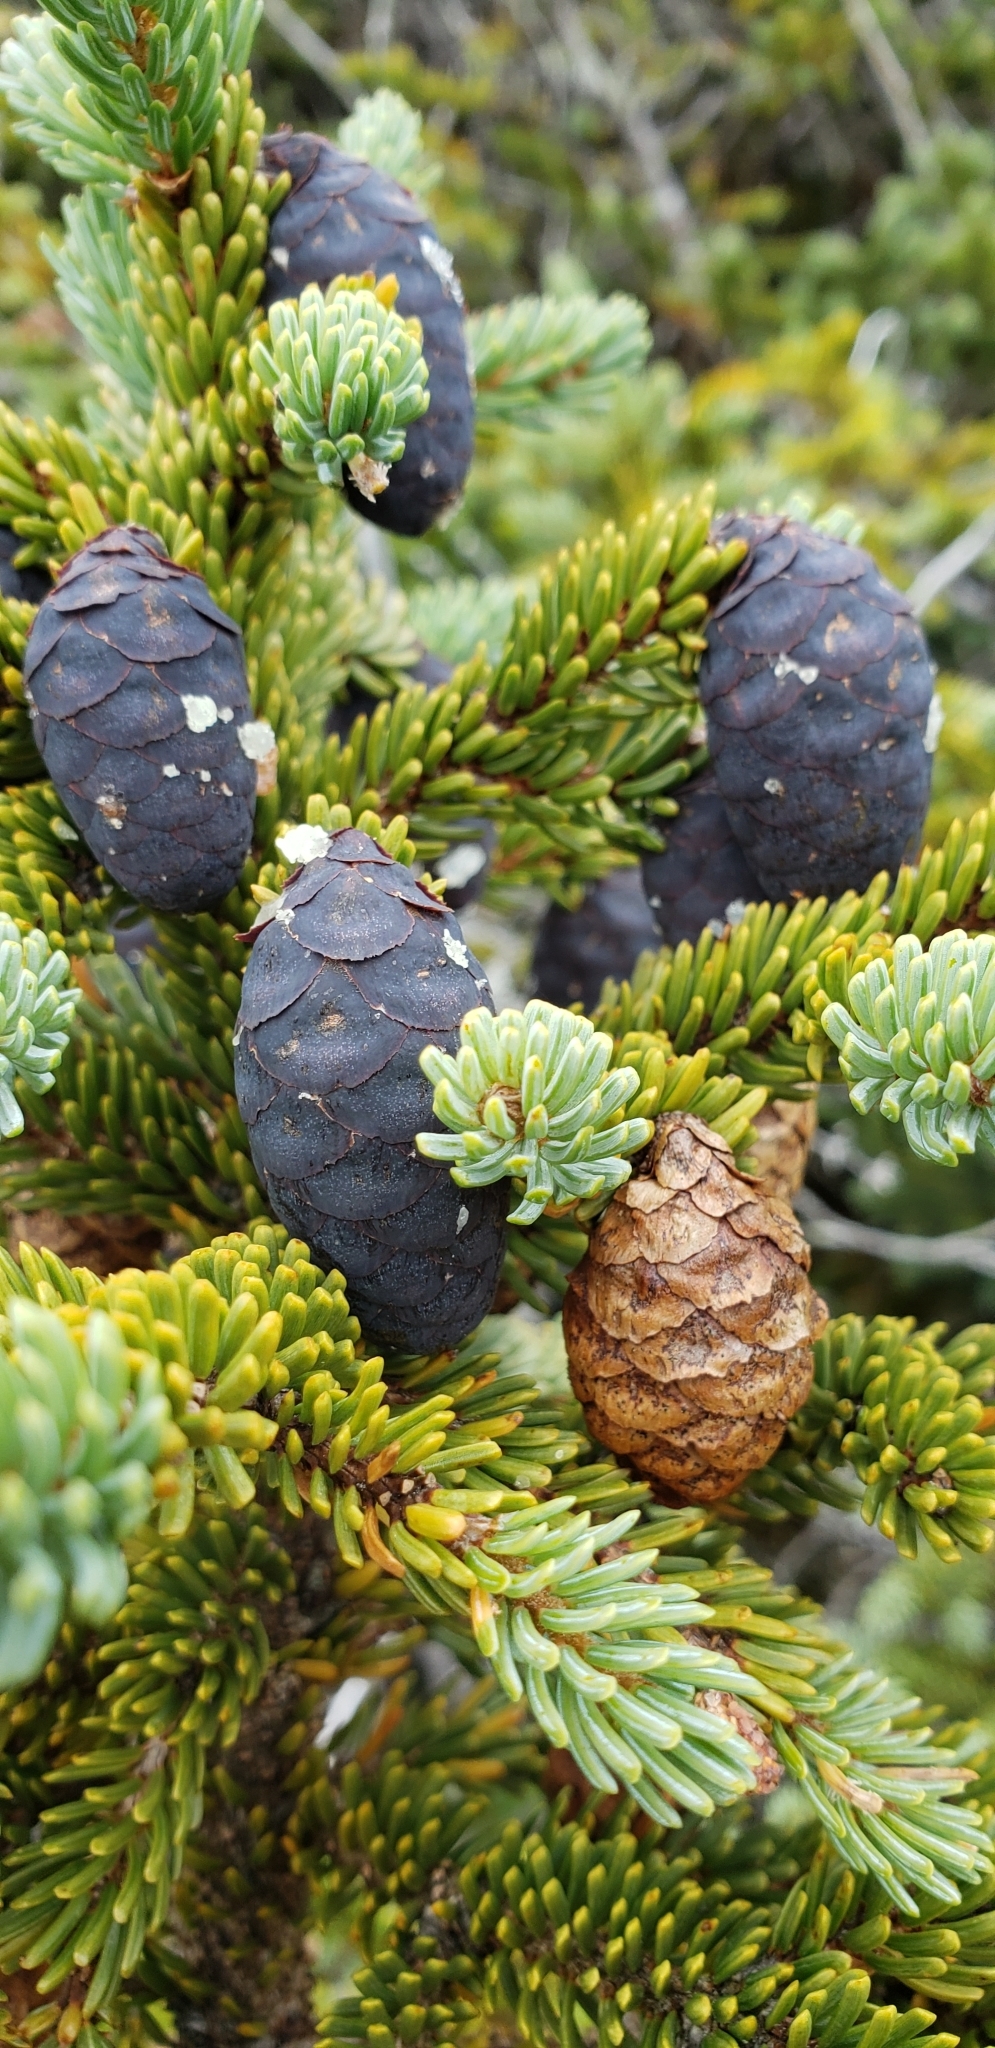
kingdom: Plantae
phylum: Tracheophyta
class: Pinopsida
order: Pinales
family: Pinaceae
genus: Picea
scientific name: Picea mariana
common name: Black spruce
